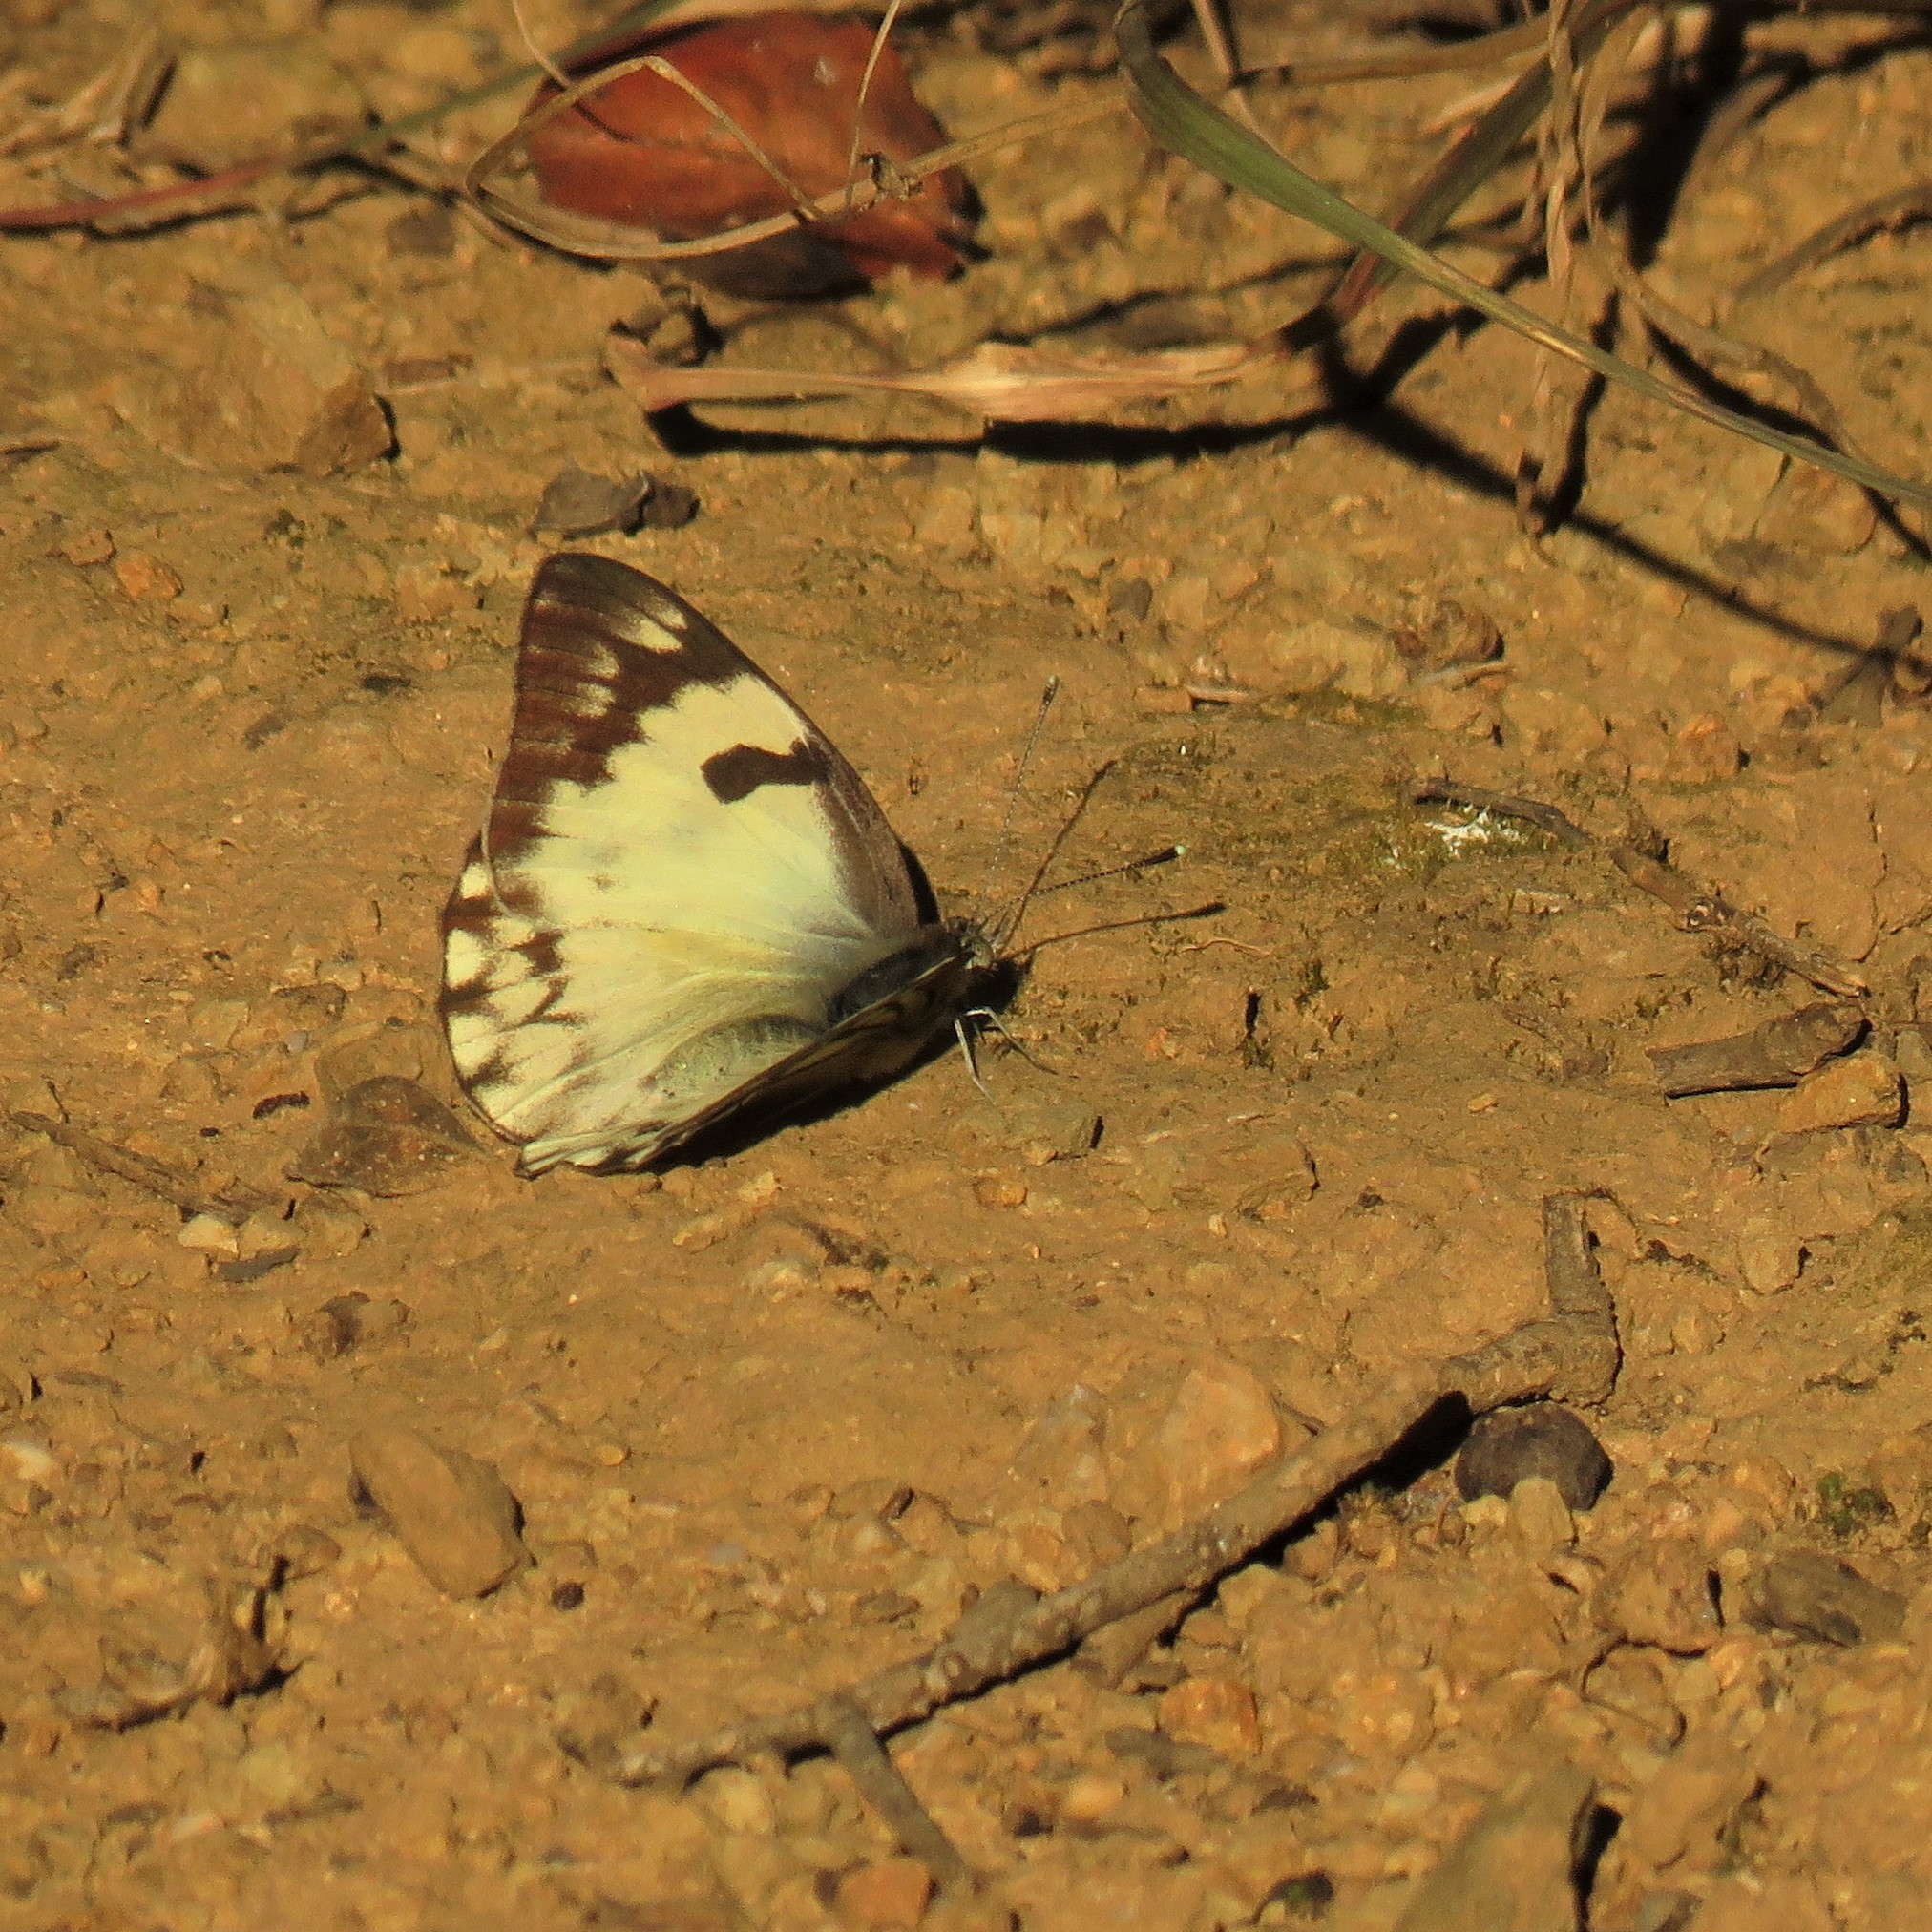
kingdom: Animalia
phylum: Arthropoda
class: Insecta
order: Lepidoptera
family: Pieridae
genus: Belenois
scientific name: Belenois gidica
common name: Pointed caper white
